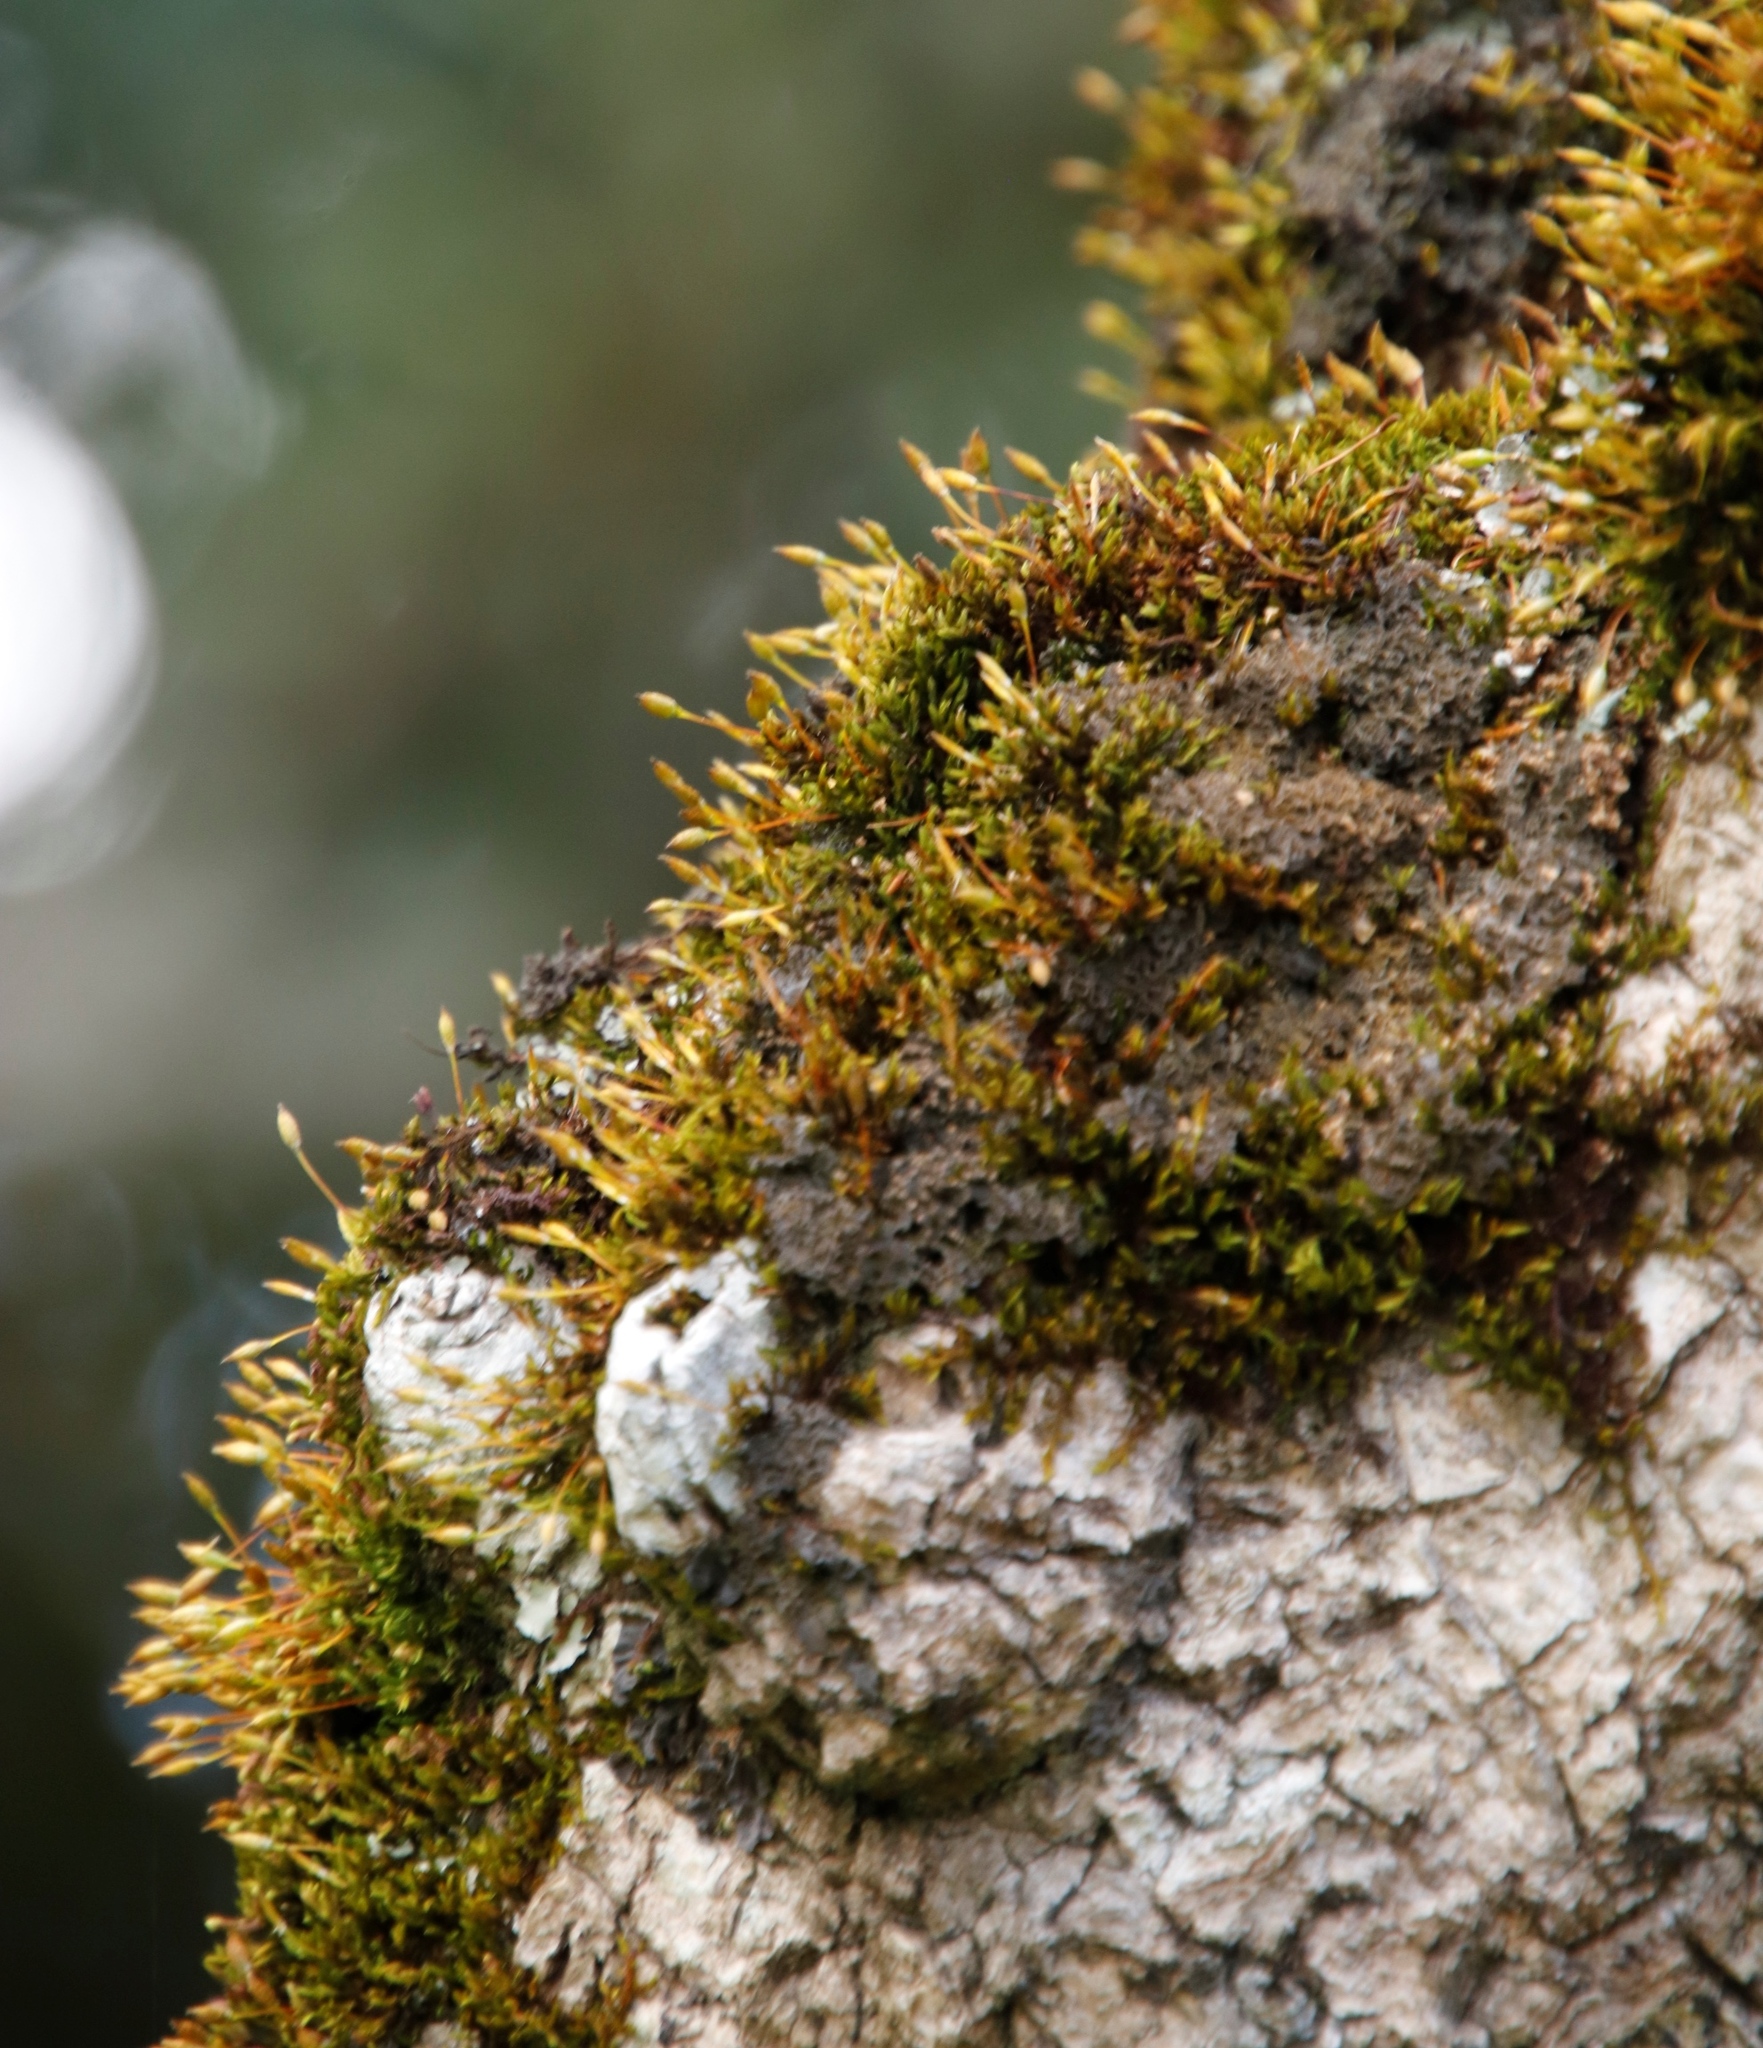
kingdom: Plantae
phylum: Bryophyta
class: Bryopsida
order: Orthotrichales
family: Orthotrichaceae
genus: Macrocoma
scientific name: Macrocoma tenuis
